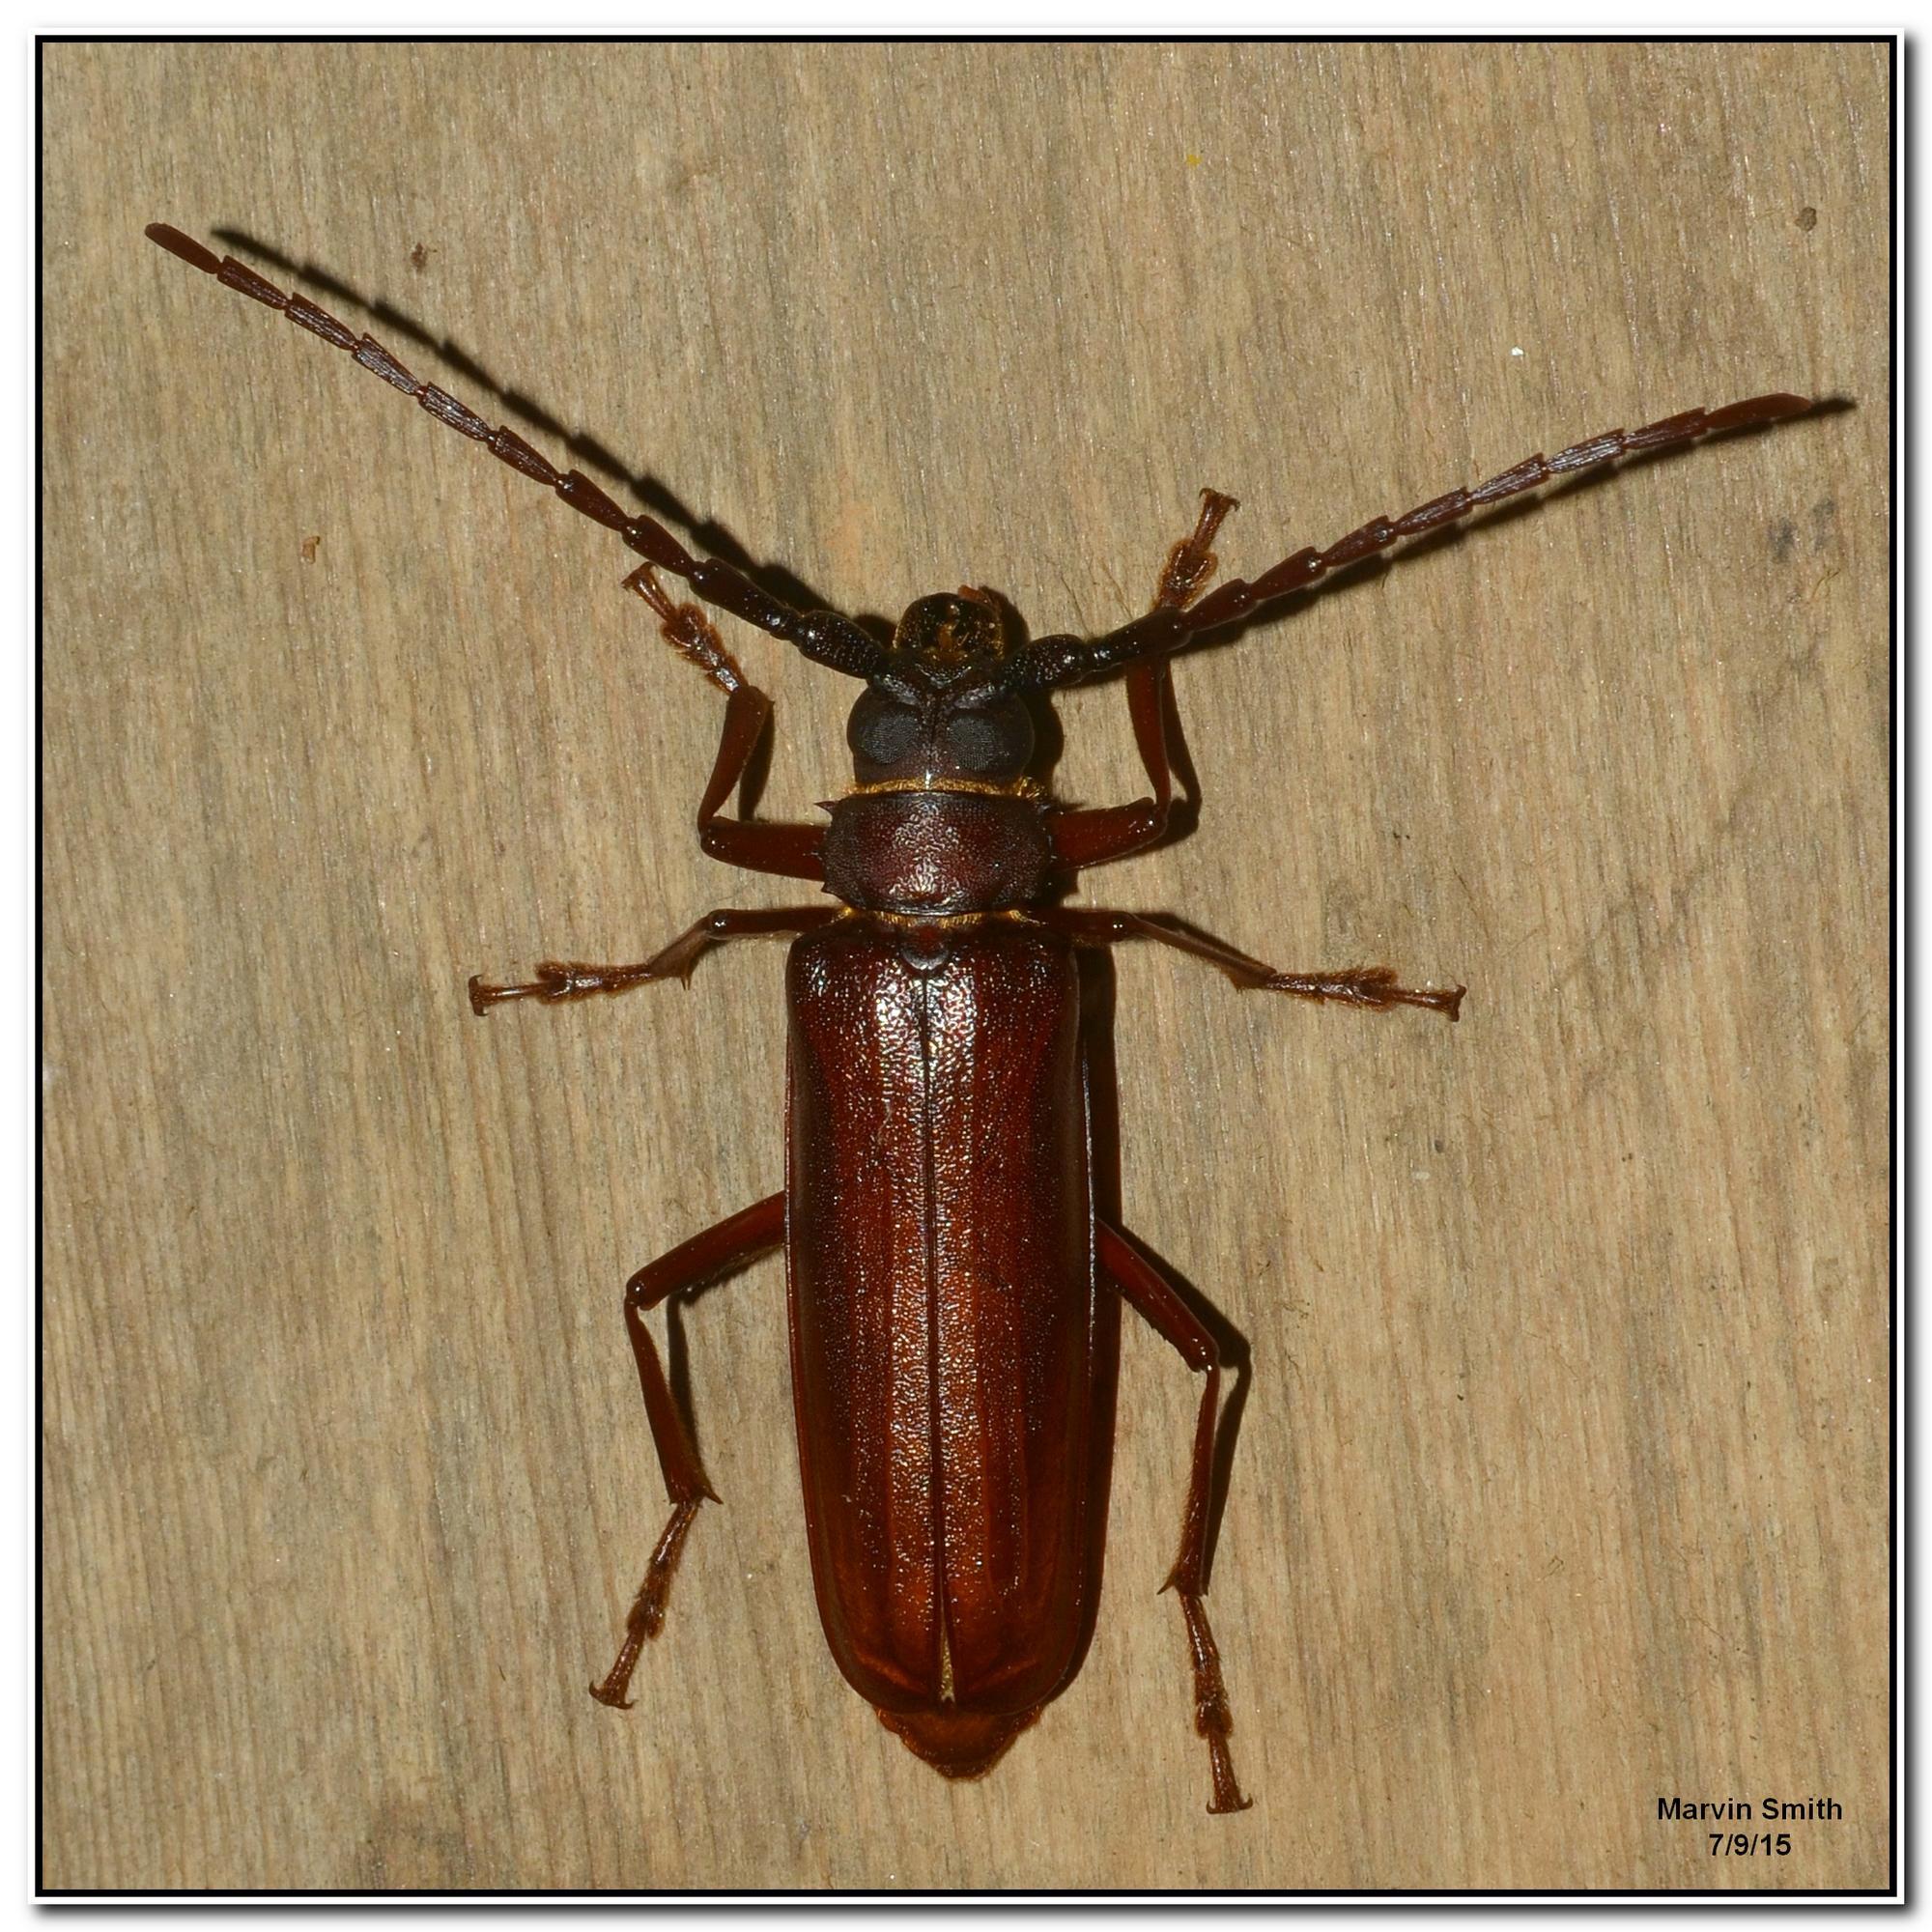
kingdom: Animalia
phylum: Arthropoda
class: Insecta
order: Coleoptera
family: Cerambycidae
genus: Orthosoma
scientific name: Orthosoma brunneum
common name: Brown prionid beetle
